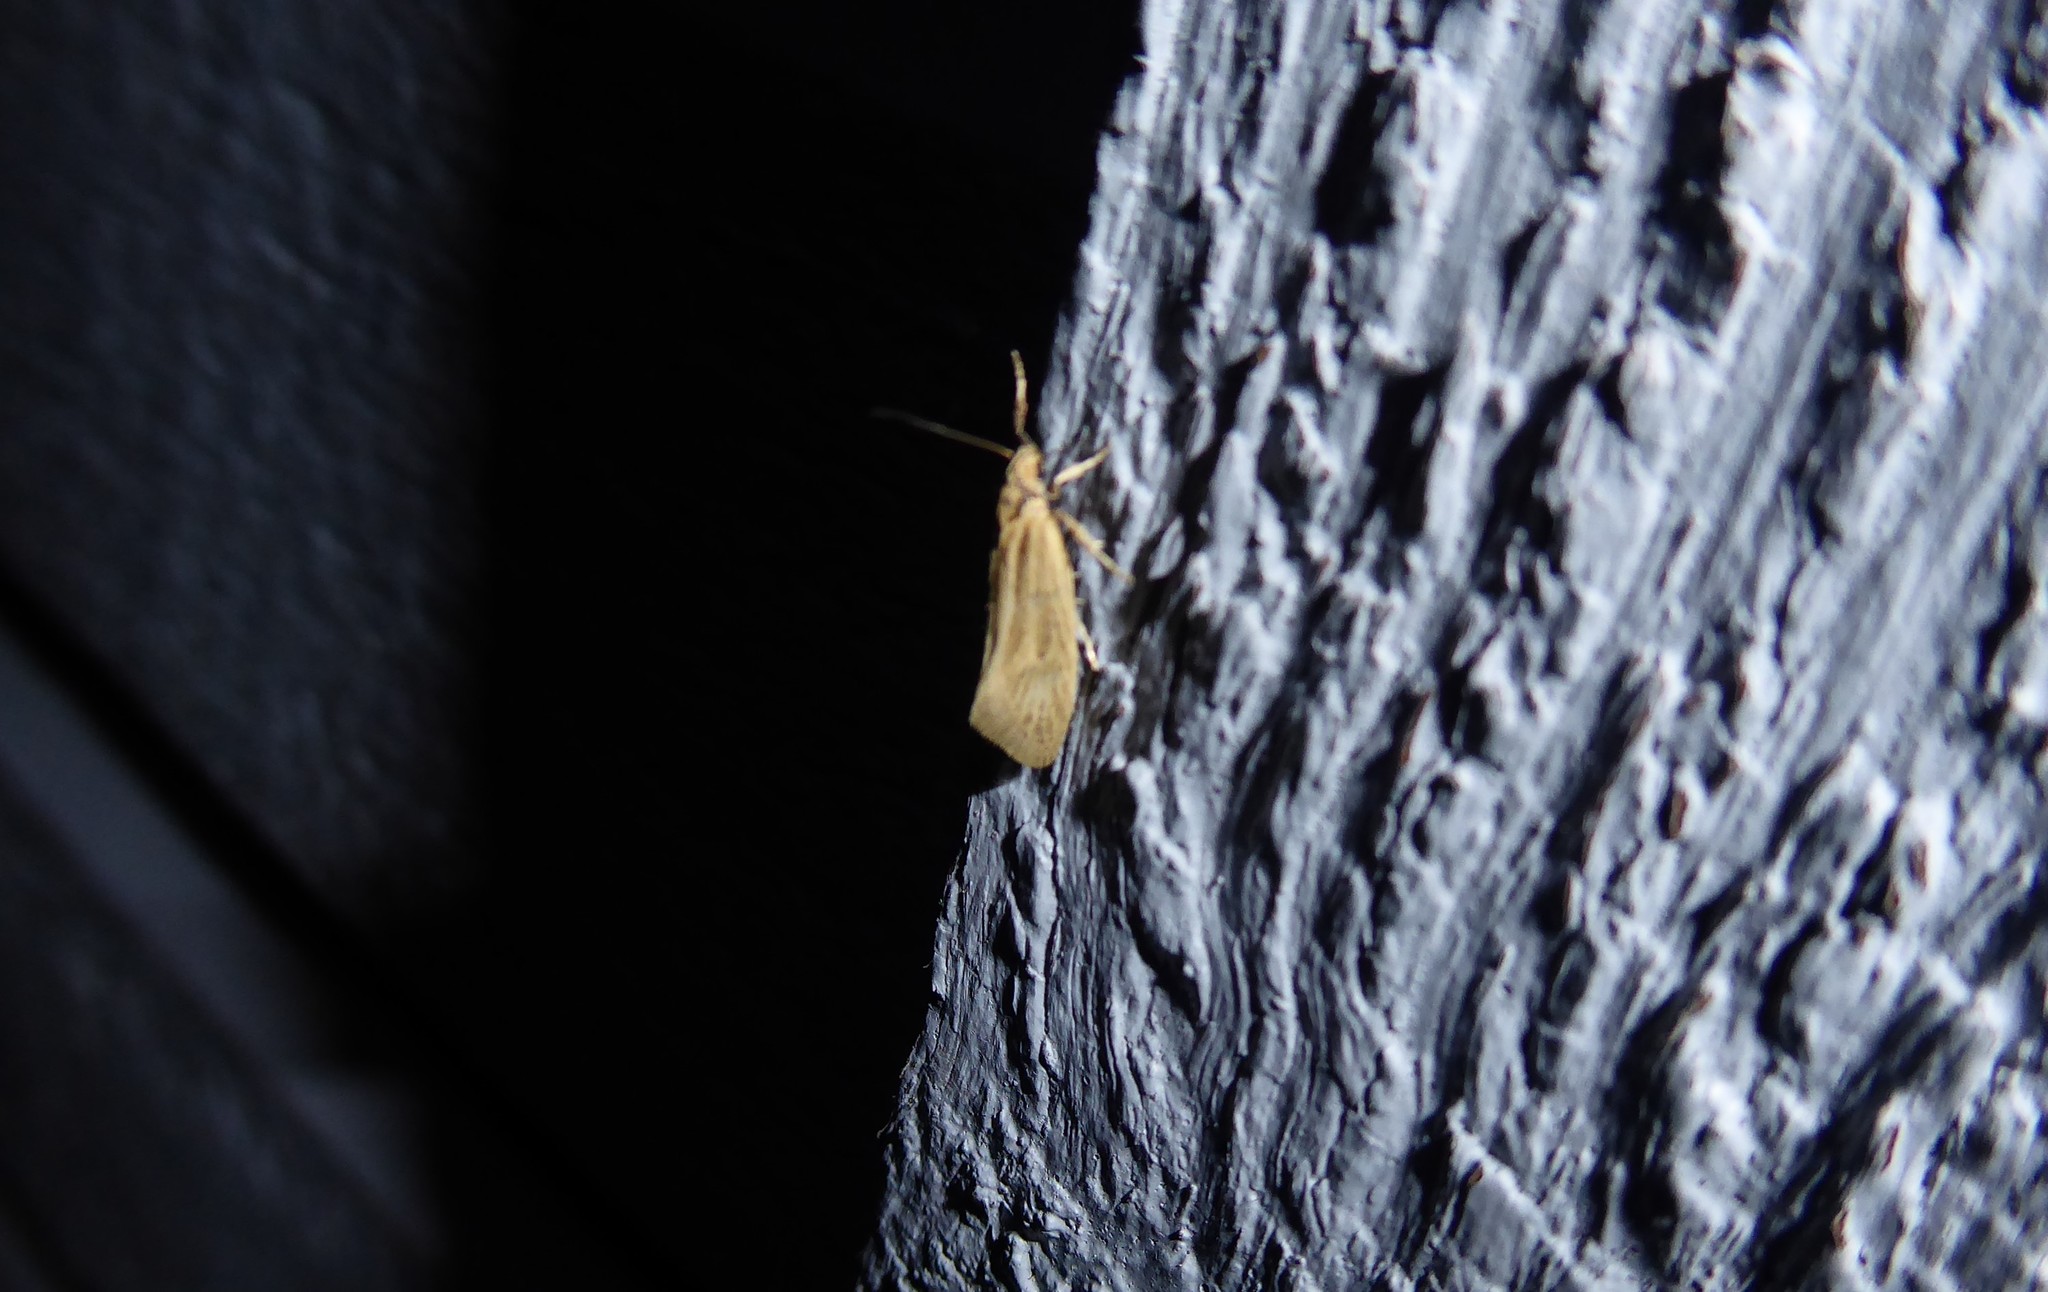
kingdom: Animalia
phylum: Arthropoda
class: Insecta
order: Lepidoptera
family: Oecophoridae
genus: Tingena
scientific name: Tingena chloradelpha
